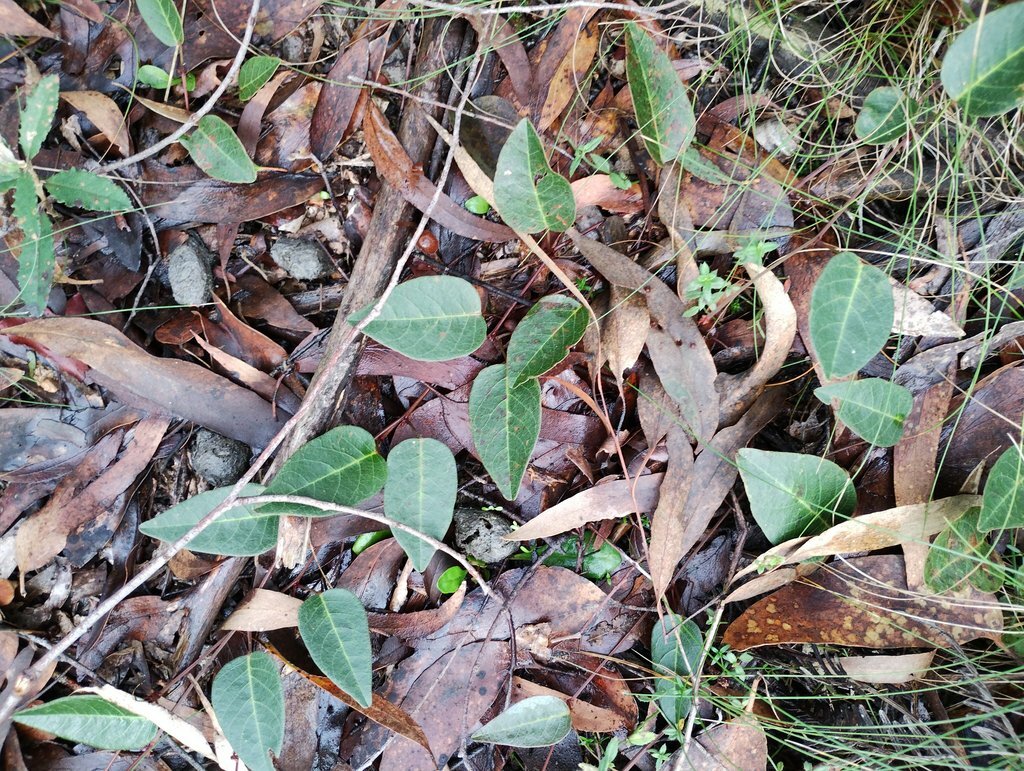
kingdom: Plantae
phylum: Tracheophyta
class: Magnoliopsida
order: Fabales
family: Fabaceae
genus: Hardenbergia
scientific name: Hardenbergia violacea
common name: Coral-pea
